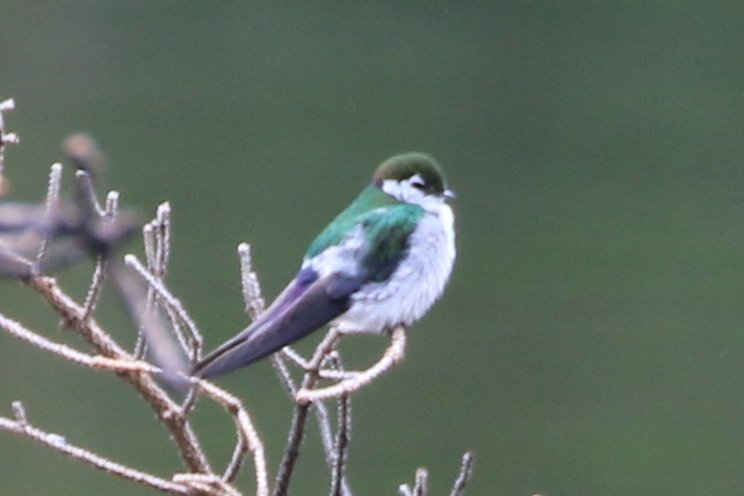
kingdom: Animalia
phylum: Chordata
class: Aves
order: Passeriformes
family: Hirundinidae
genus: Tachycineta
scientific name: Tachycineta thalassina
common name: Violet-green swallow
